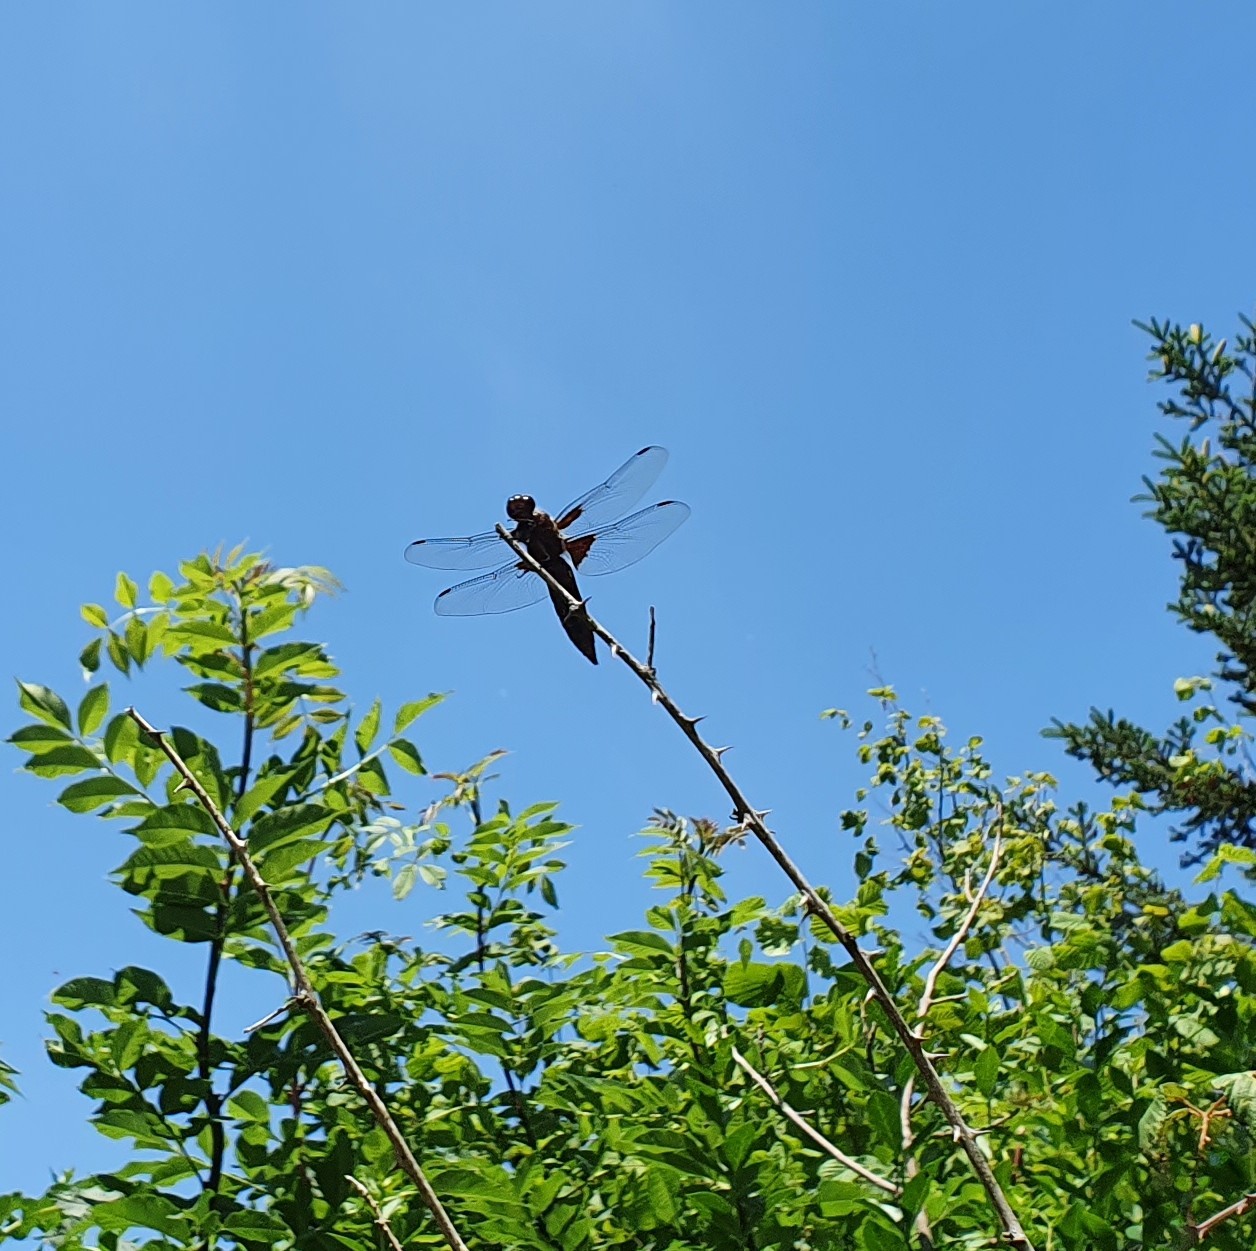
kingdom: Animalia
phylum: Arthropoda
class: Insecta
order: Odonata
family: Libellulidae
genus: Libellula
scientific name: Libellula depressa
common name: Broad-bodied chaser
